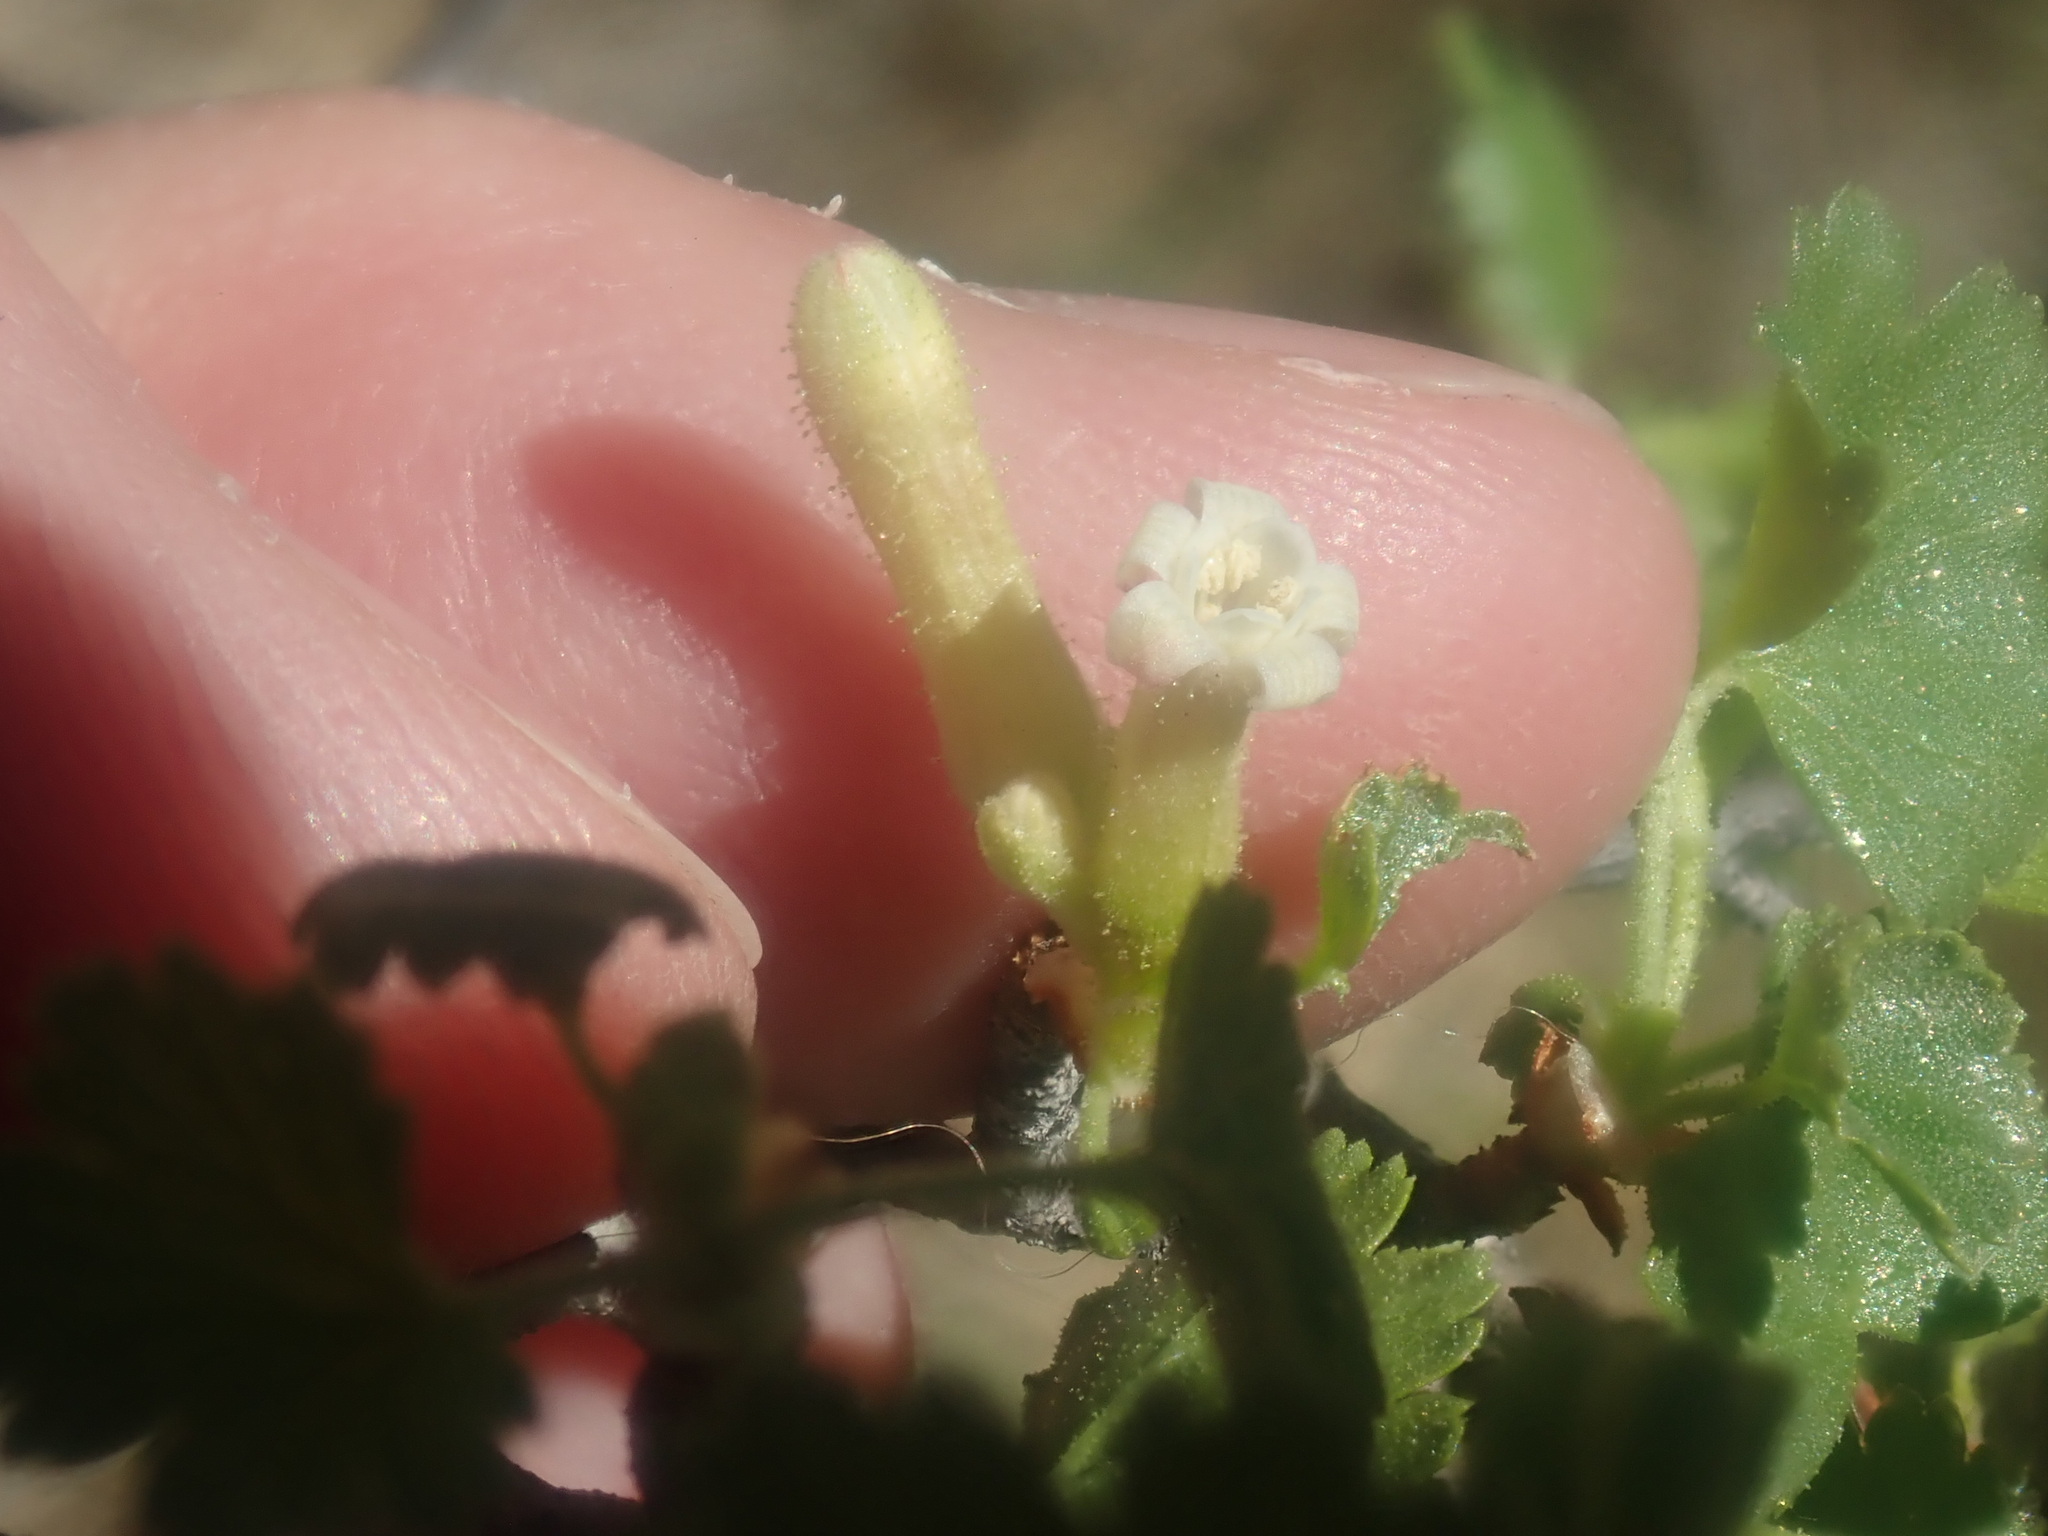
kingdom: Plantae
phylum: Tracheophyta
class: Magnoliopsida
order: Saxifragales
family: Grossulariaceae
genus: Ribes
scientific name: Ribes cereum
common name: Wax currant
